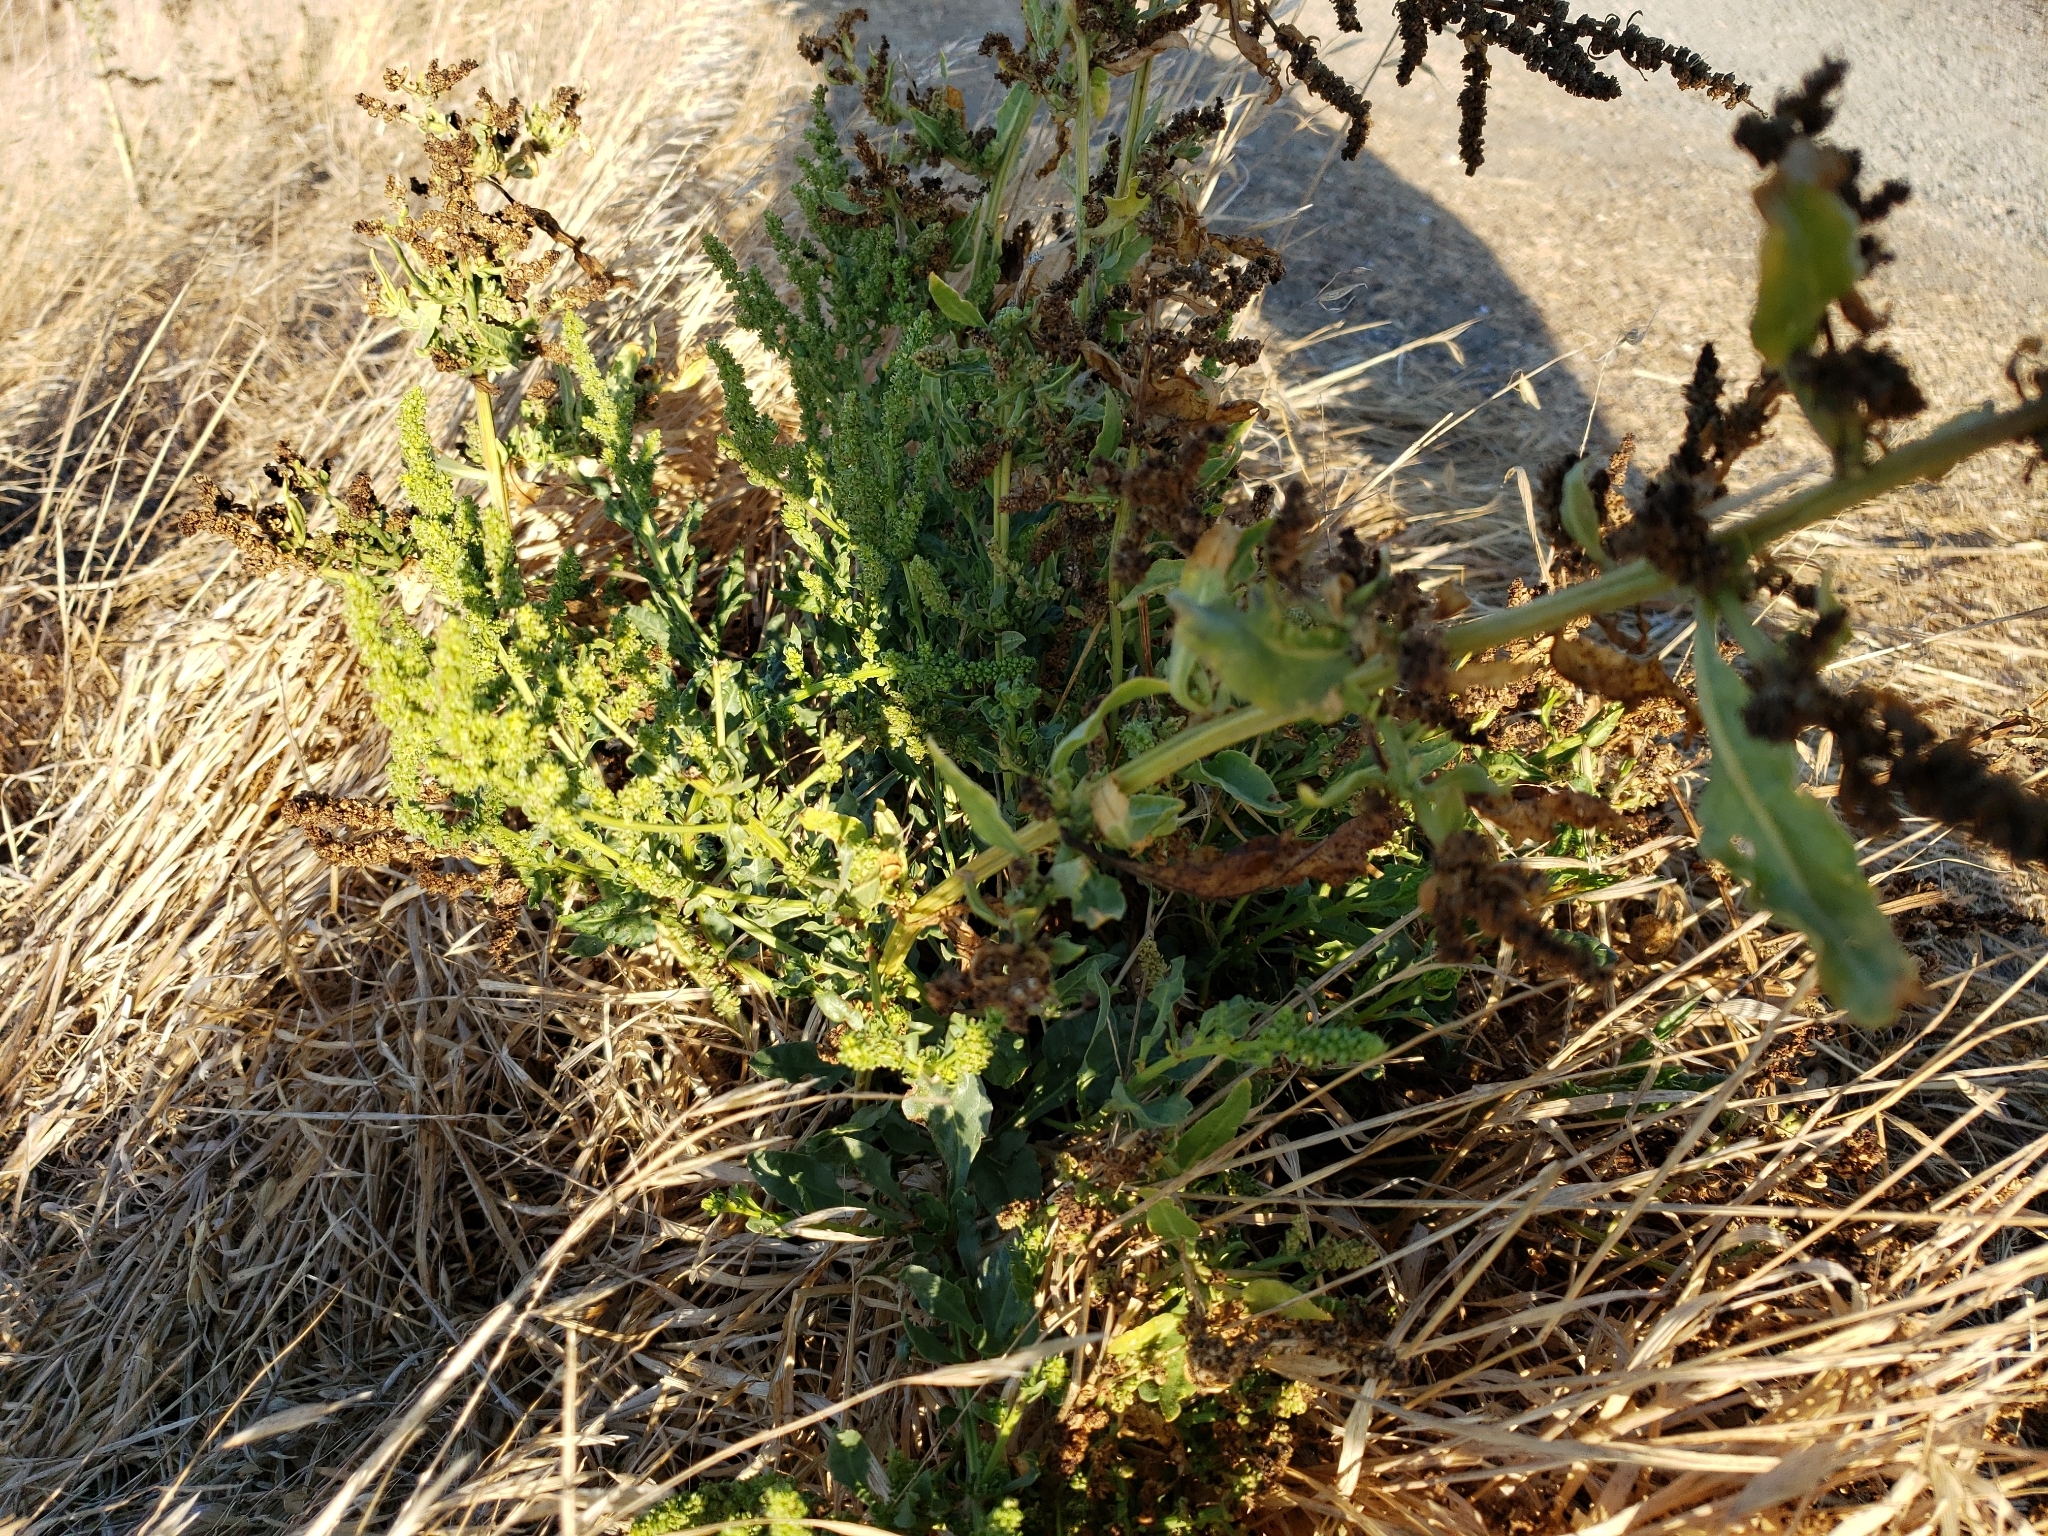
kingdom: Plantae
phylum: Tracheophyta
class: Magnoliopsida
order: Caryophyllales
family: Amaranthaceae
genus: Beta
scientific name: Beta vulgaris
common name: Beet
